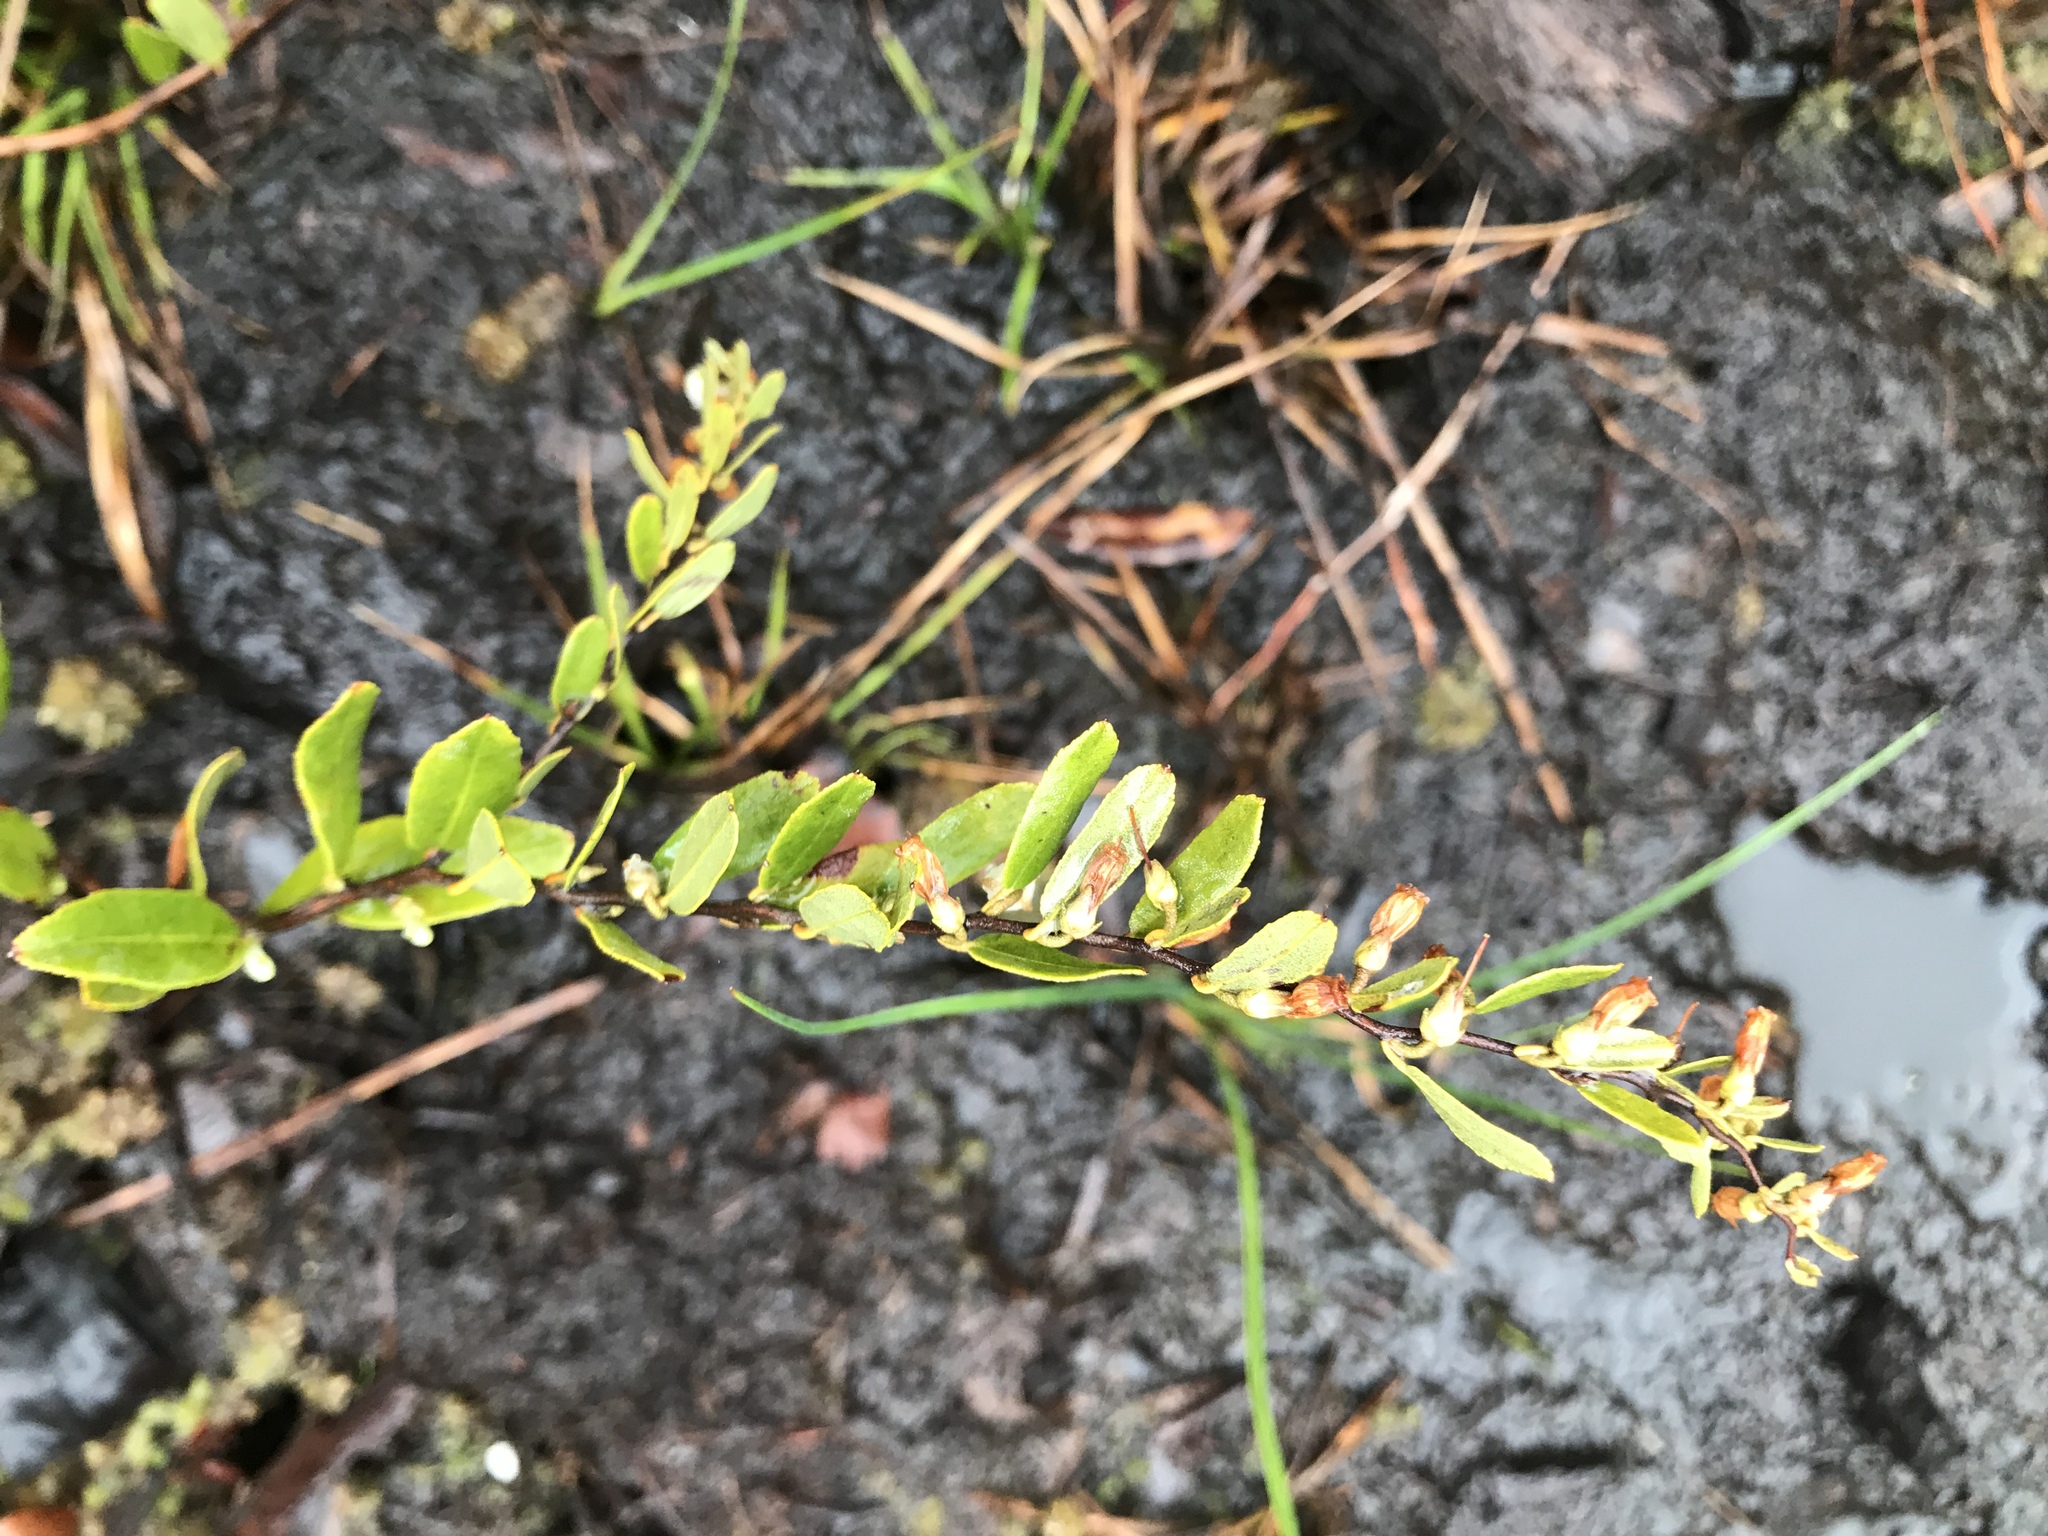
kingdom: Plantae
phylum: Tracheophyta
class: Magnoliopsida
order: Ericales
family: Ericaceae
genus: Chamaedaphne
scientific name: Chamaedaphne calyculata
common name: Leatherleaf
